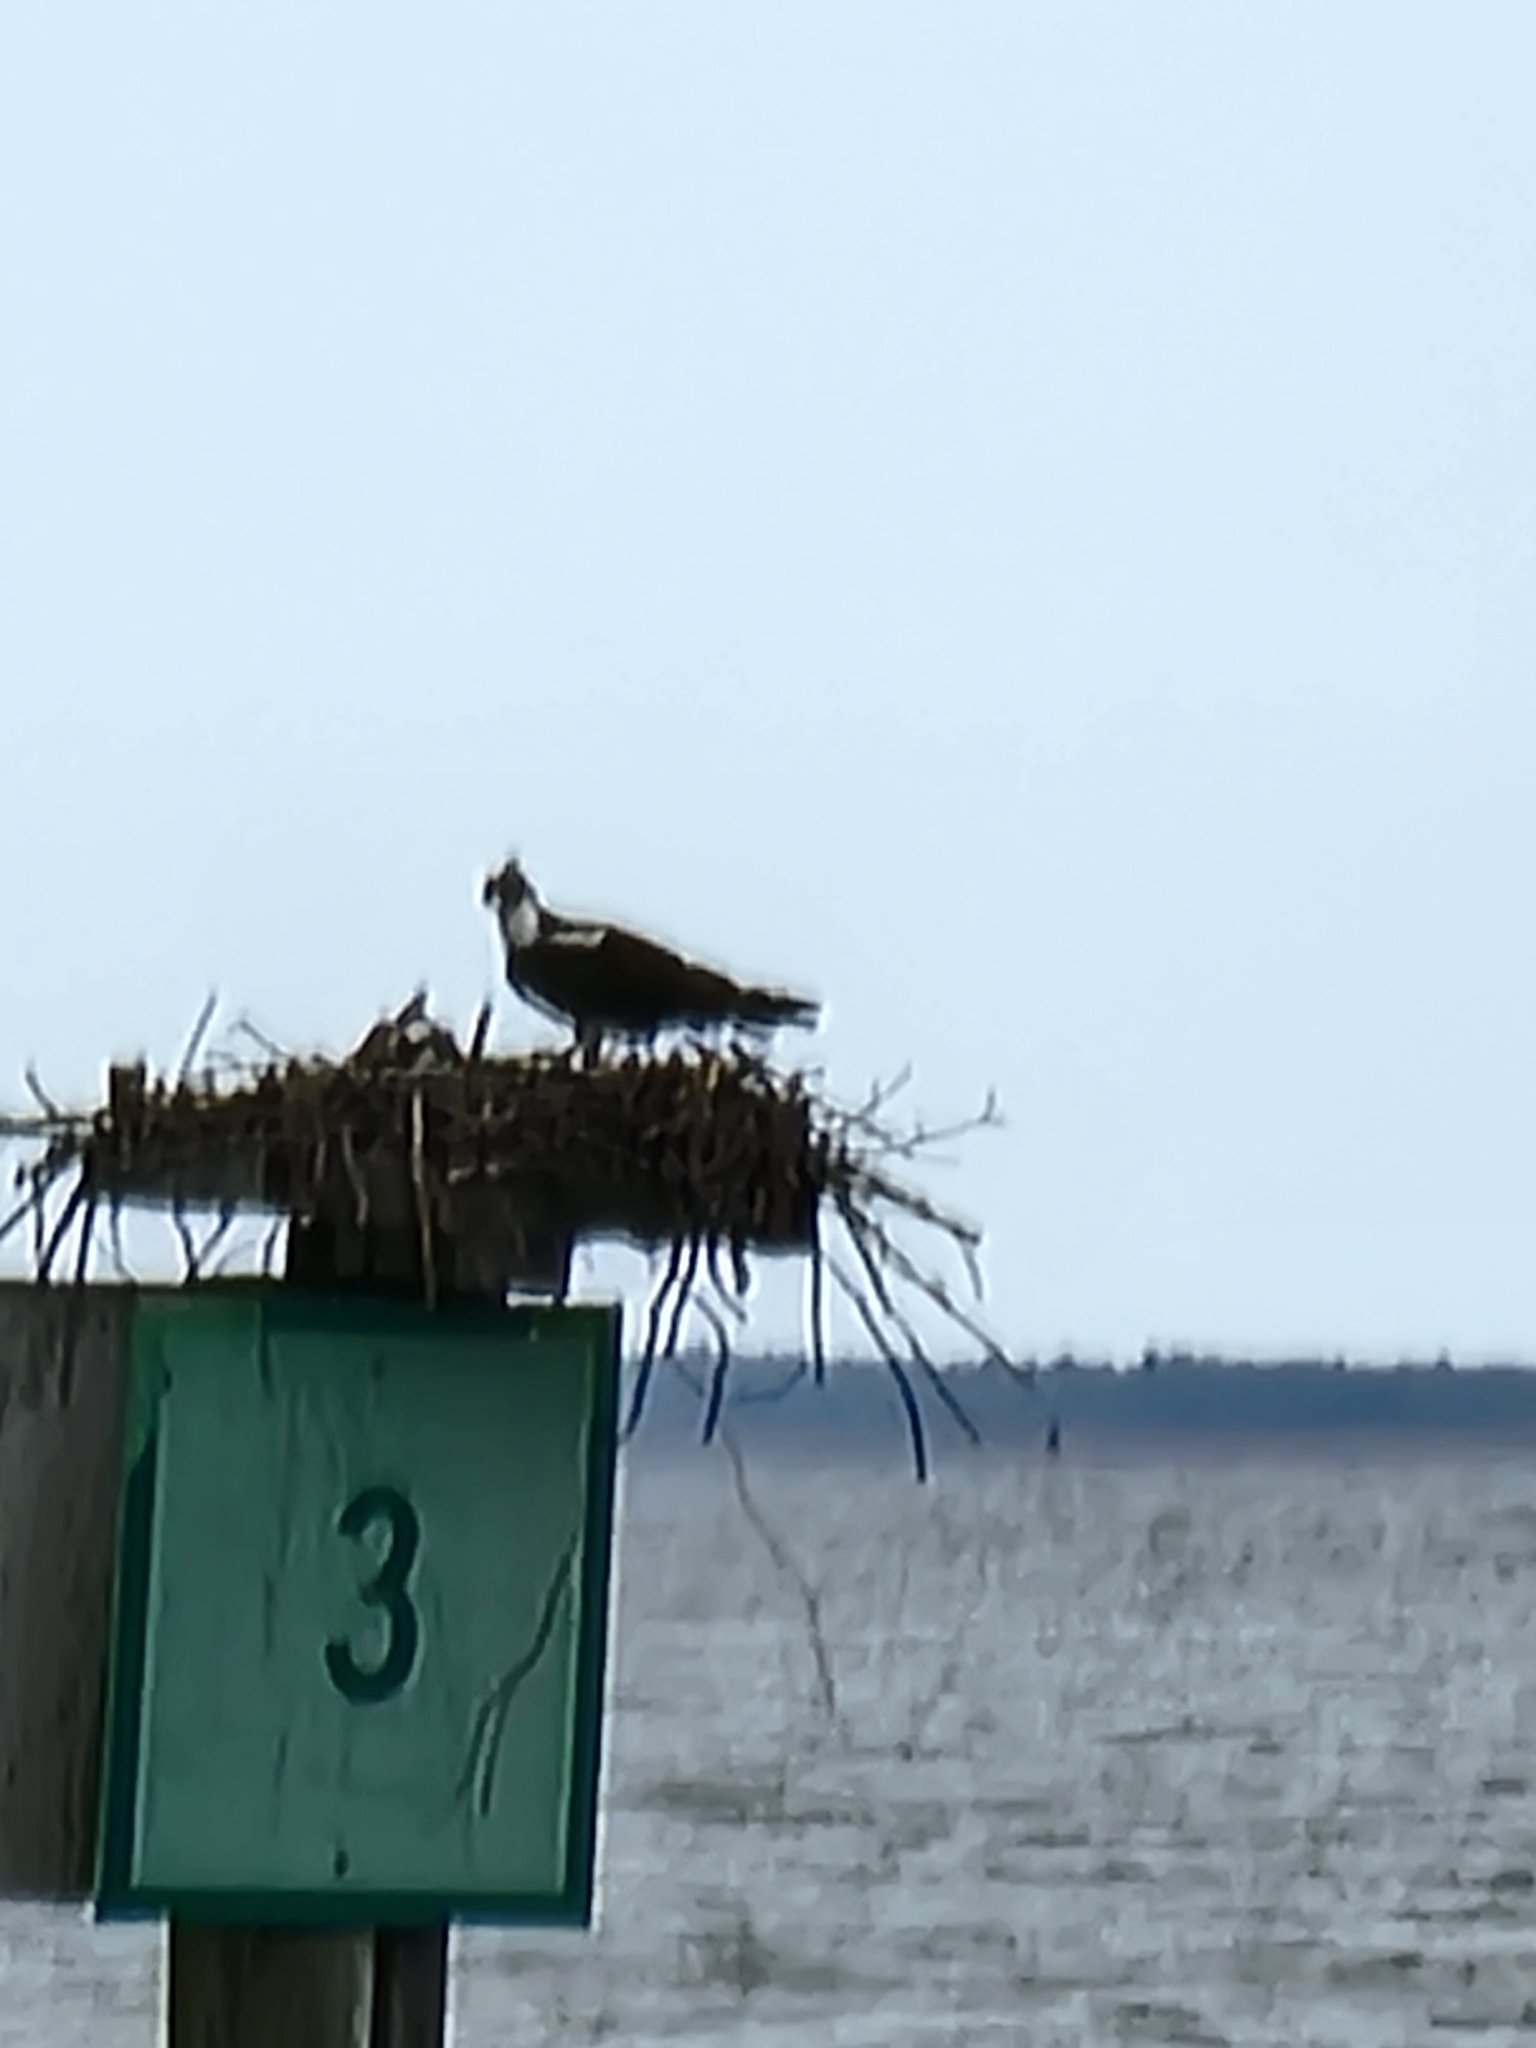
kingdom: Animalia
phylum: Chordata
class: Aves
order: Accipitriformes
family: Pandionidae
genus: Pandion
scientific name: Pandion haliaetus
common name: Osprey
